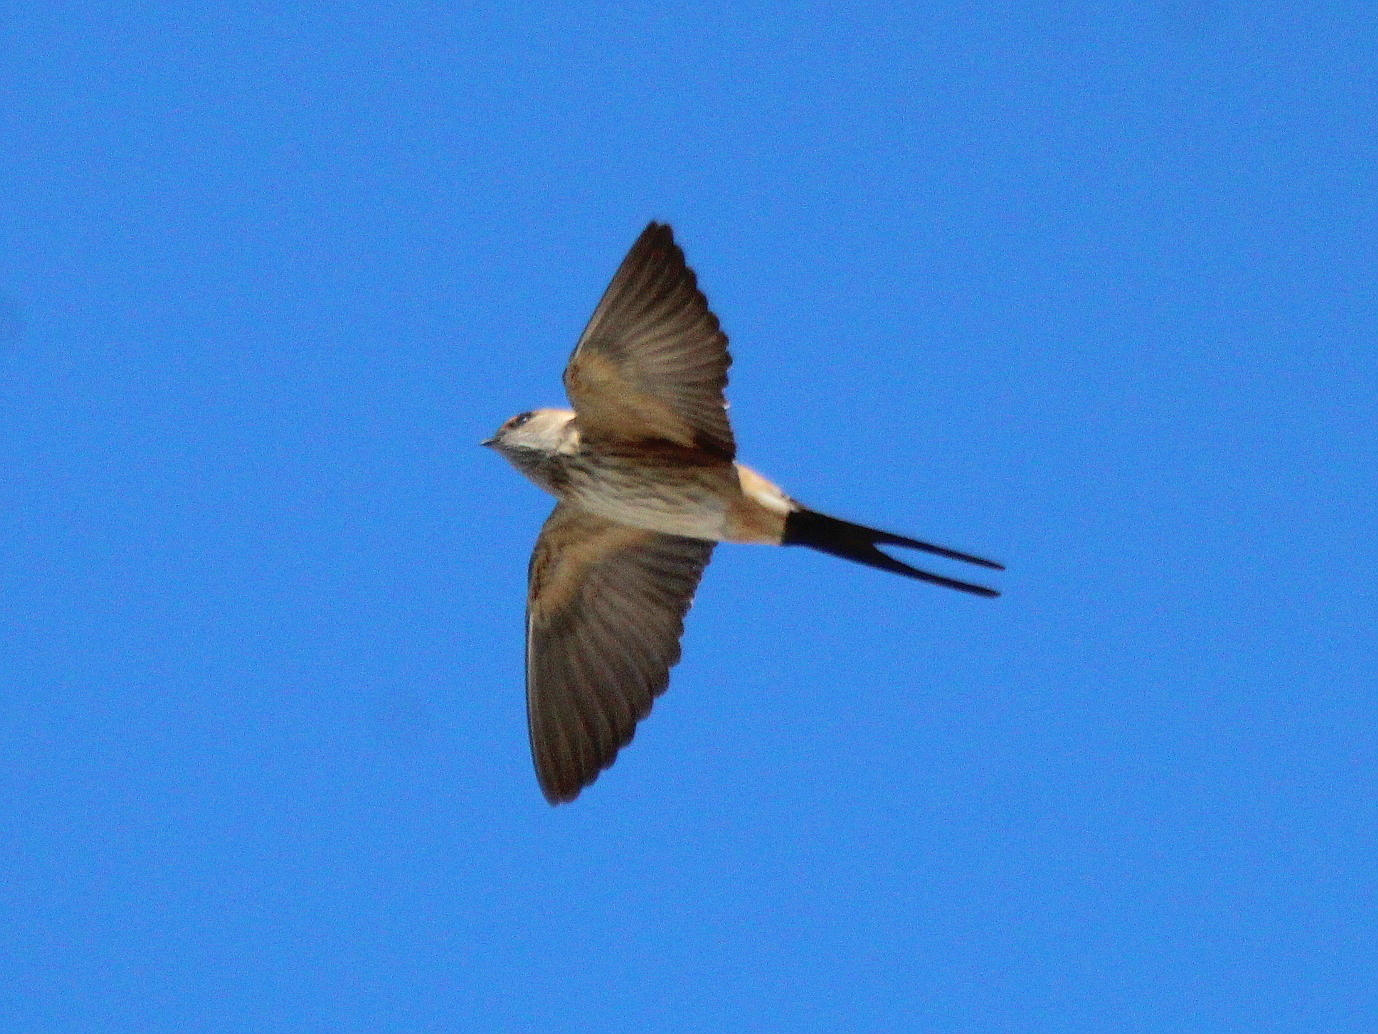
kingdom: Animalia
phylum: Chordata
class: Aves
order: Passeriformes
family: Hirundinidae
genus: Cecropis
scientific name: Cecropis daurica
